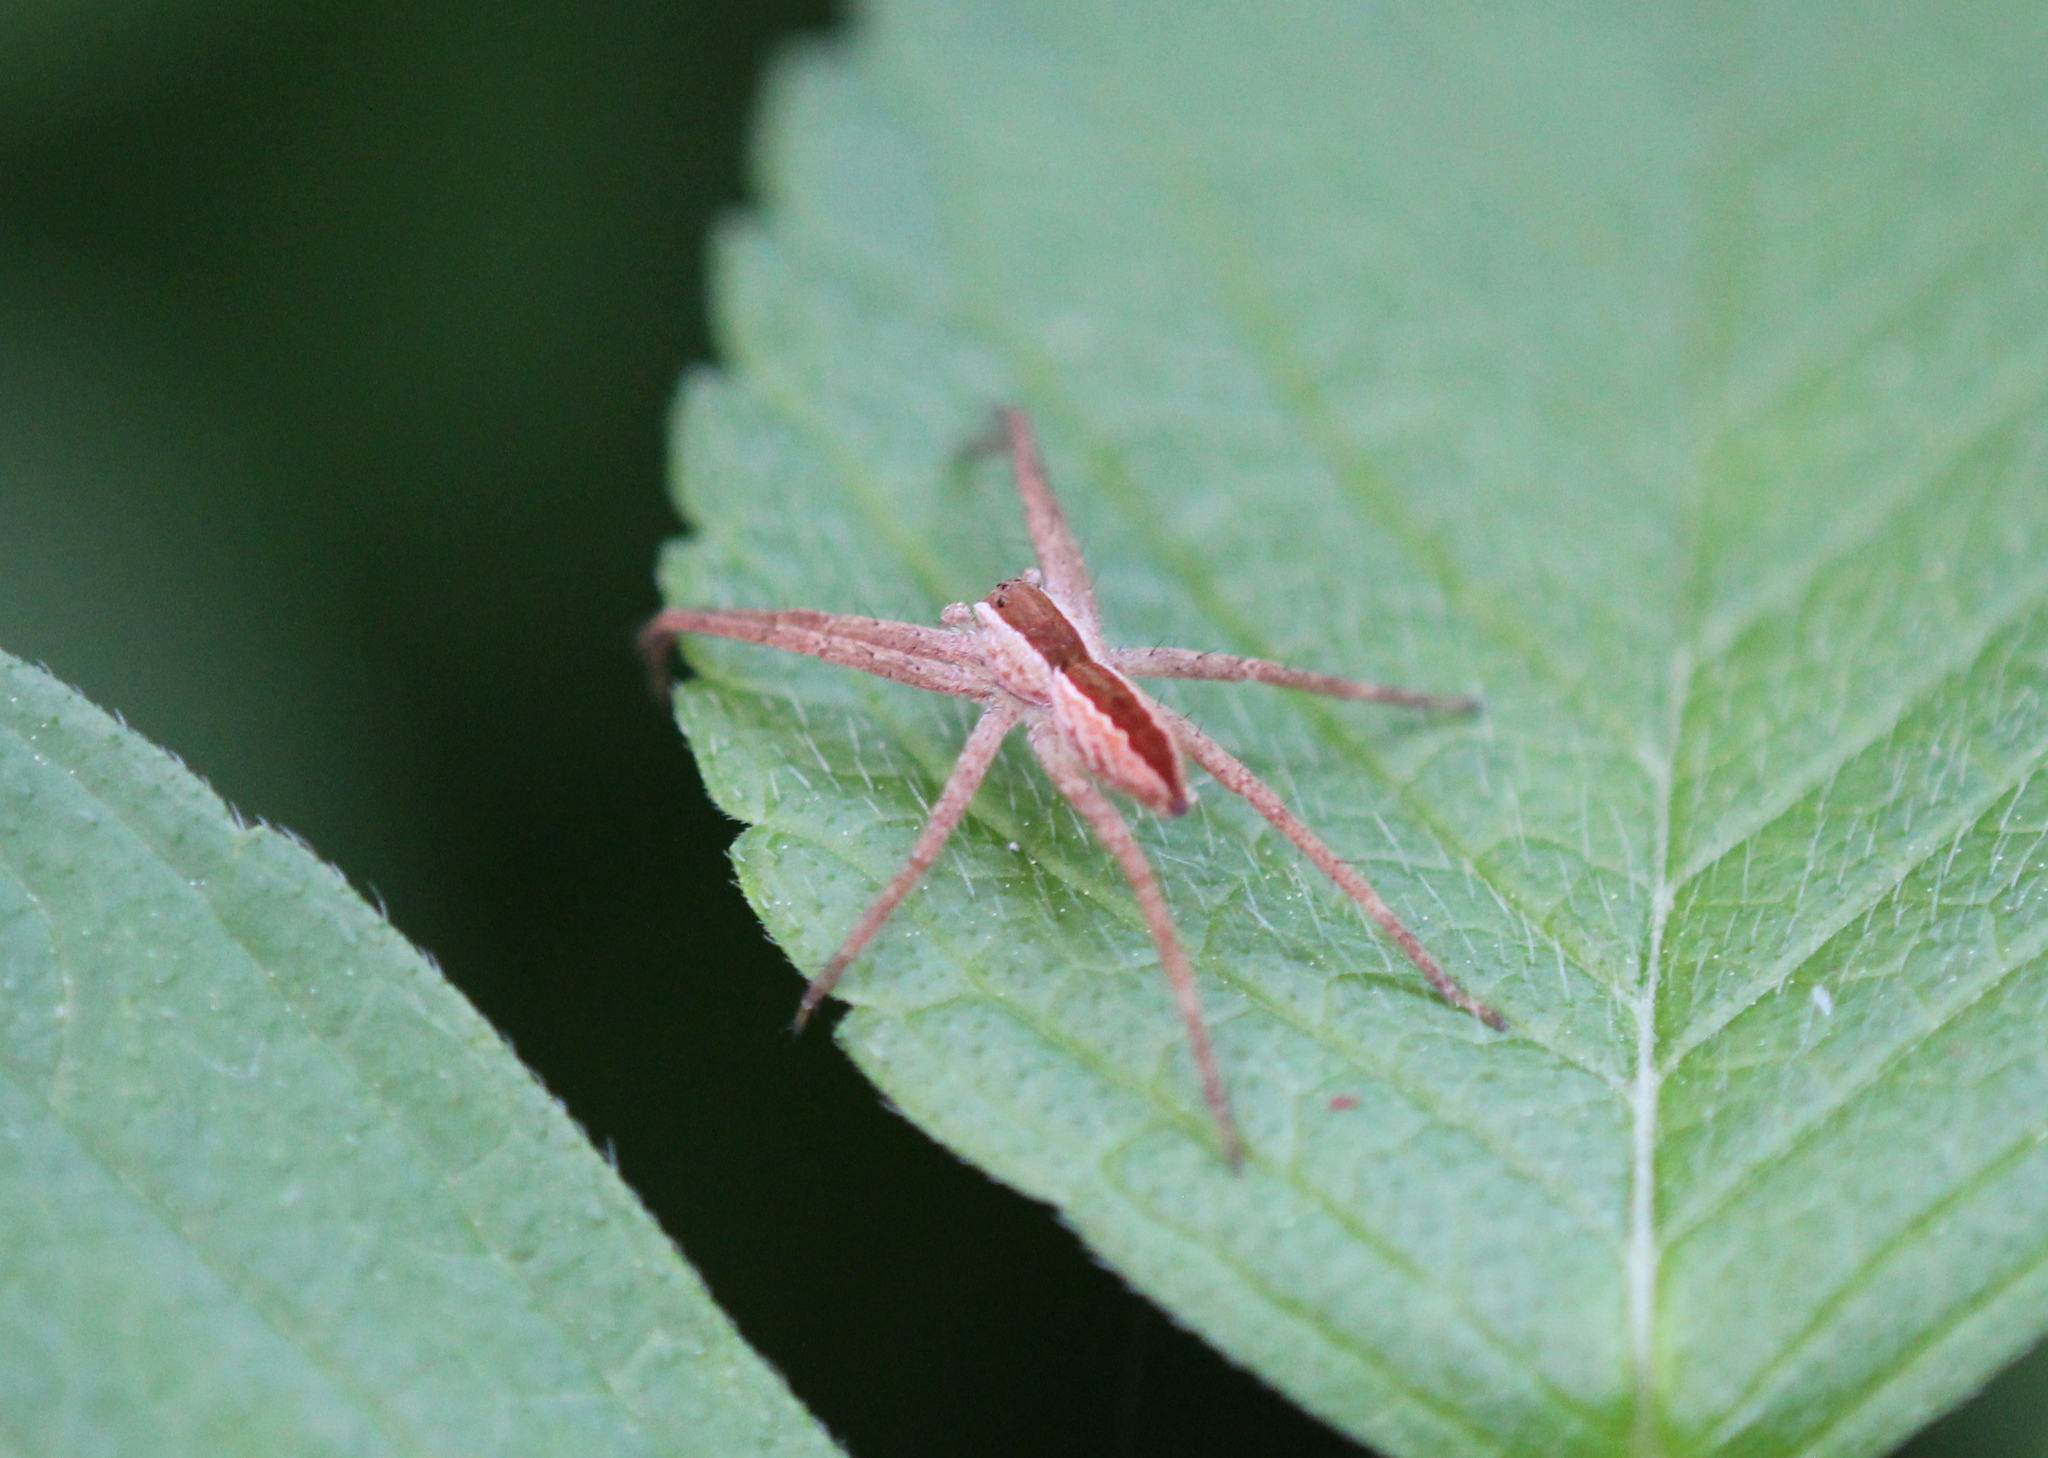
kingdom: Animalia
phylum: Arthropoda
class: Arachnida
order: Araneae
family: Pisauridae
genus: Pisaurina
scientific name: Pisaurina mira
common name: American nursery web spider
